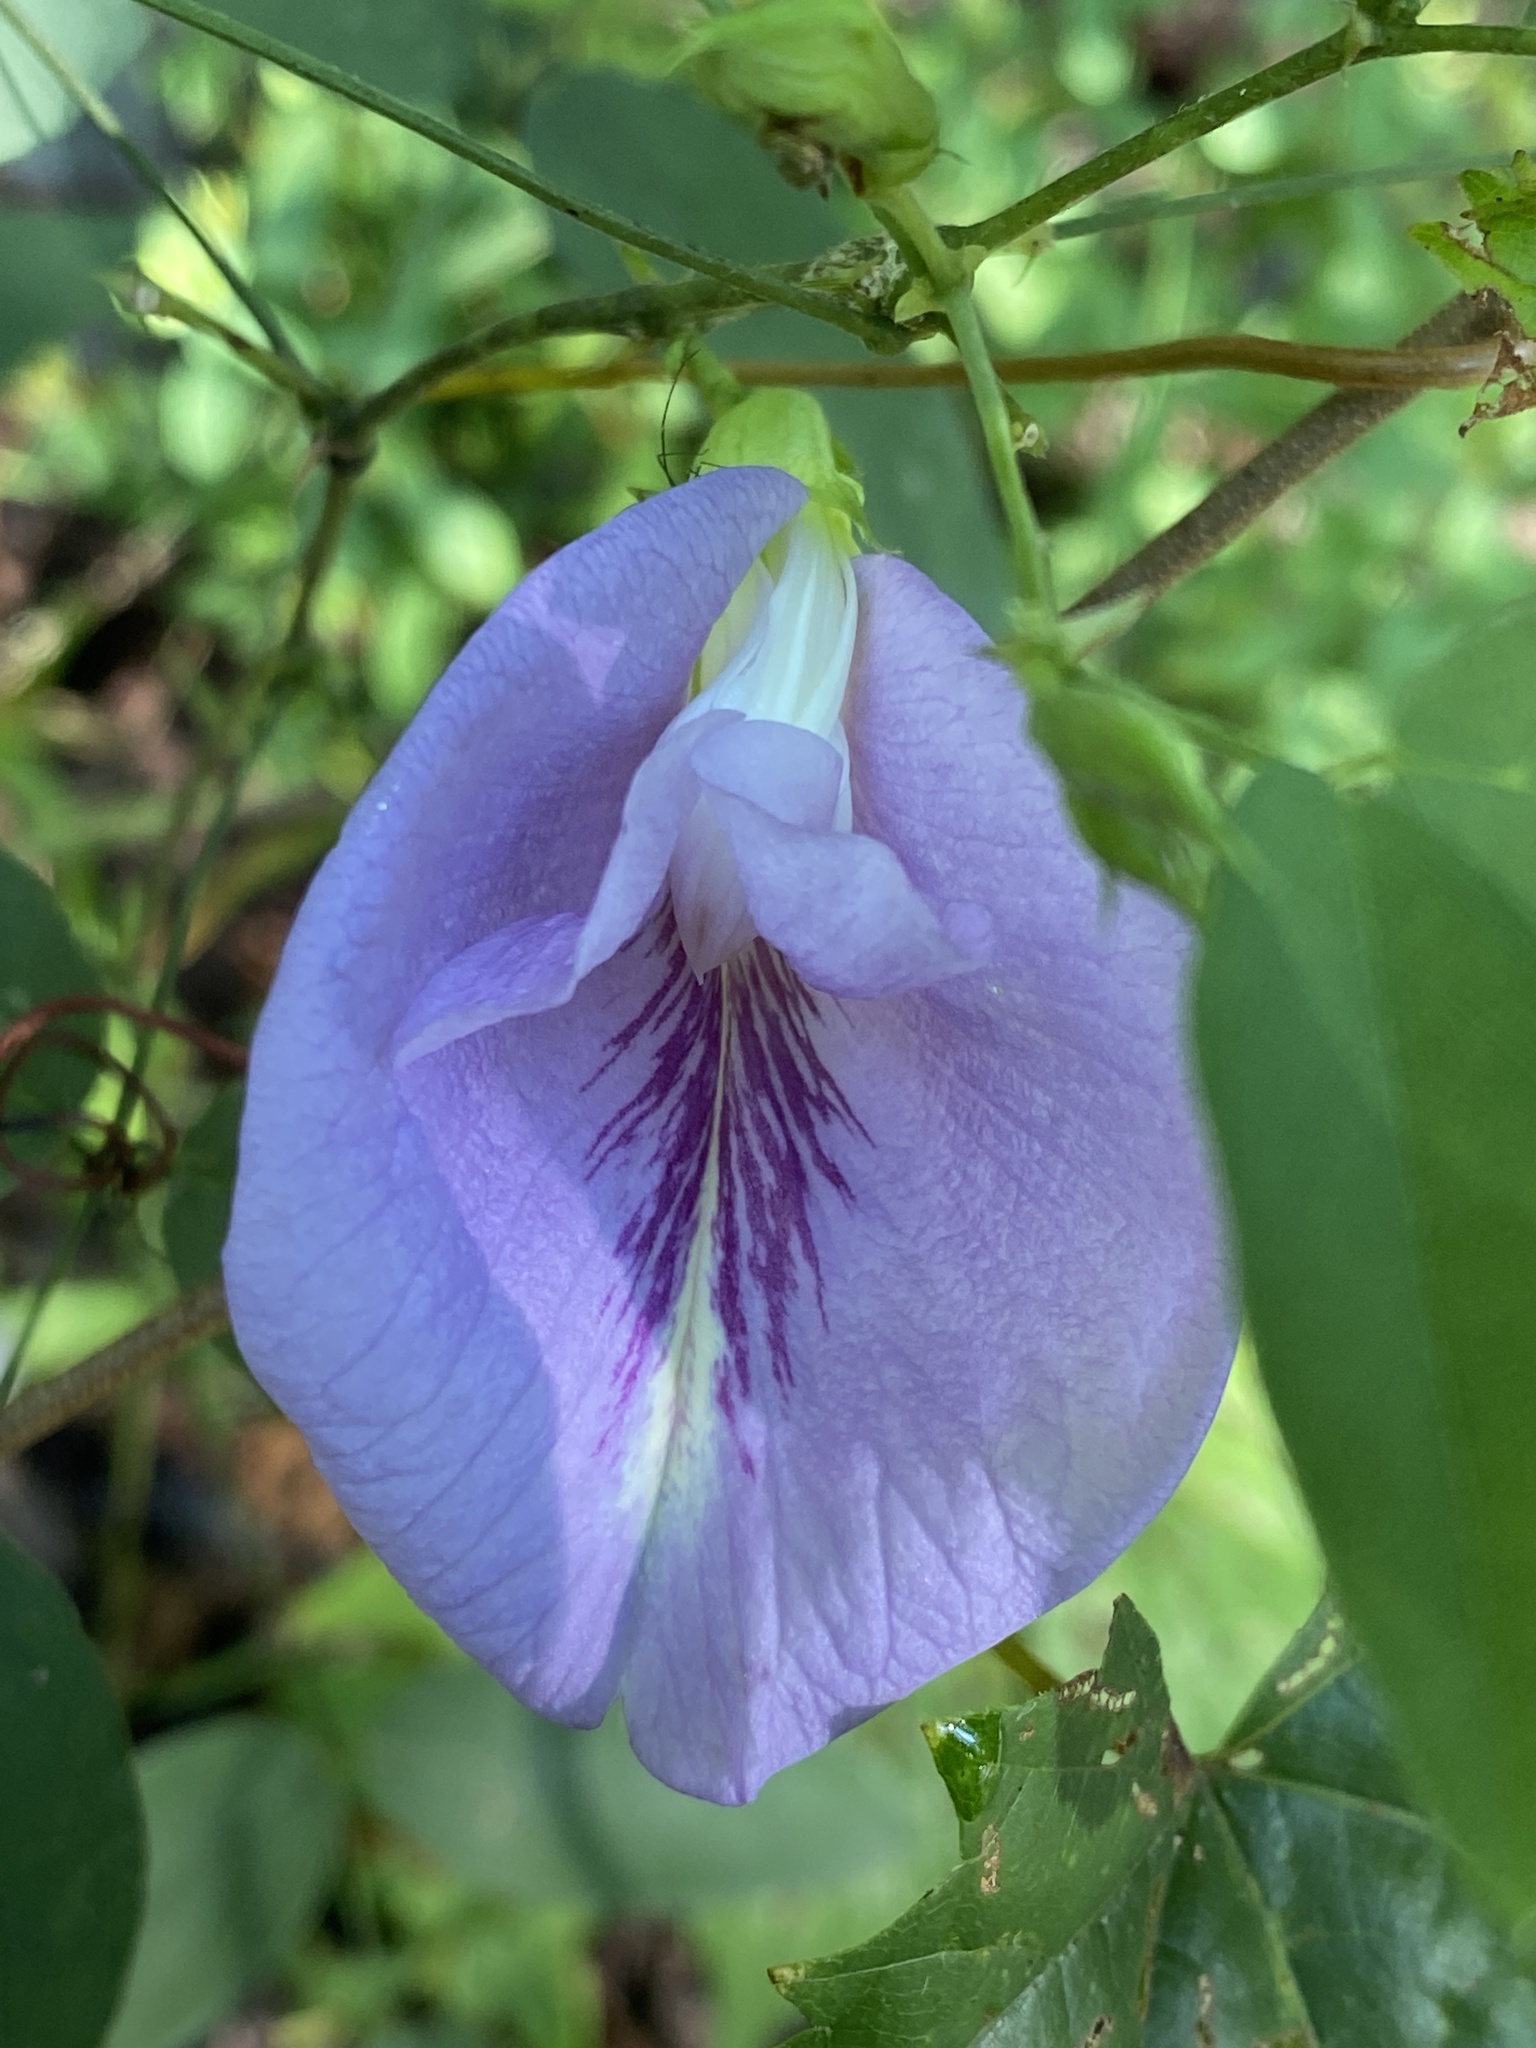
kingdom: Plantae
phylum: Tracheophyta
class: Magnoliopsida
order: Fabales
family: Fabaceae
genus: Clitoria
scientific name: Clitoria mariana
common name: Butterfly-pea
